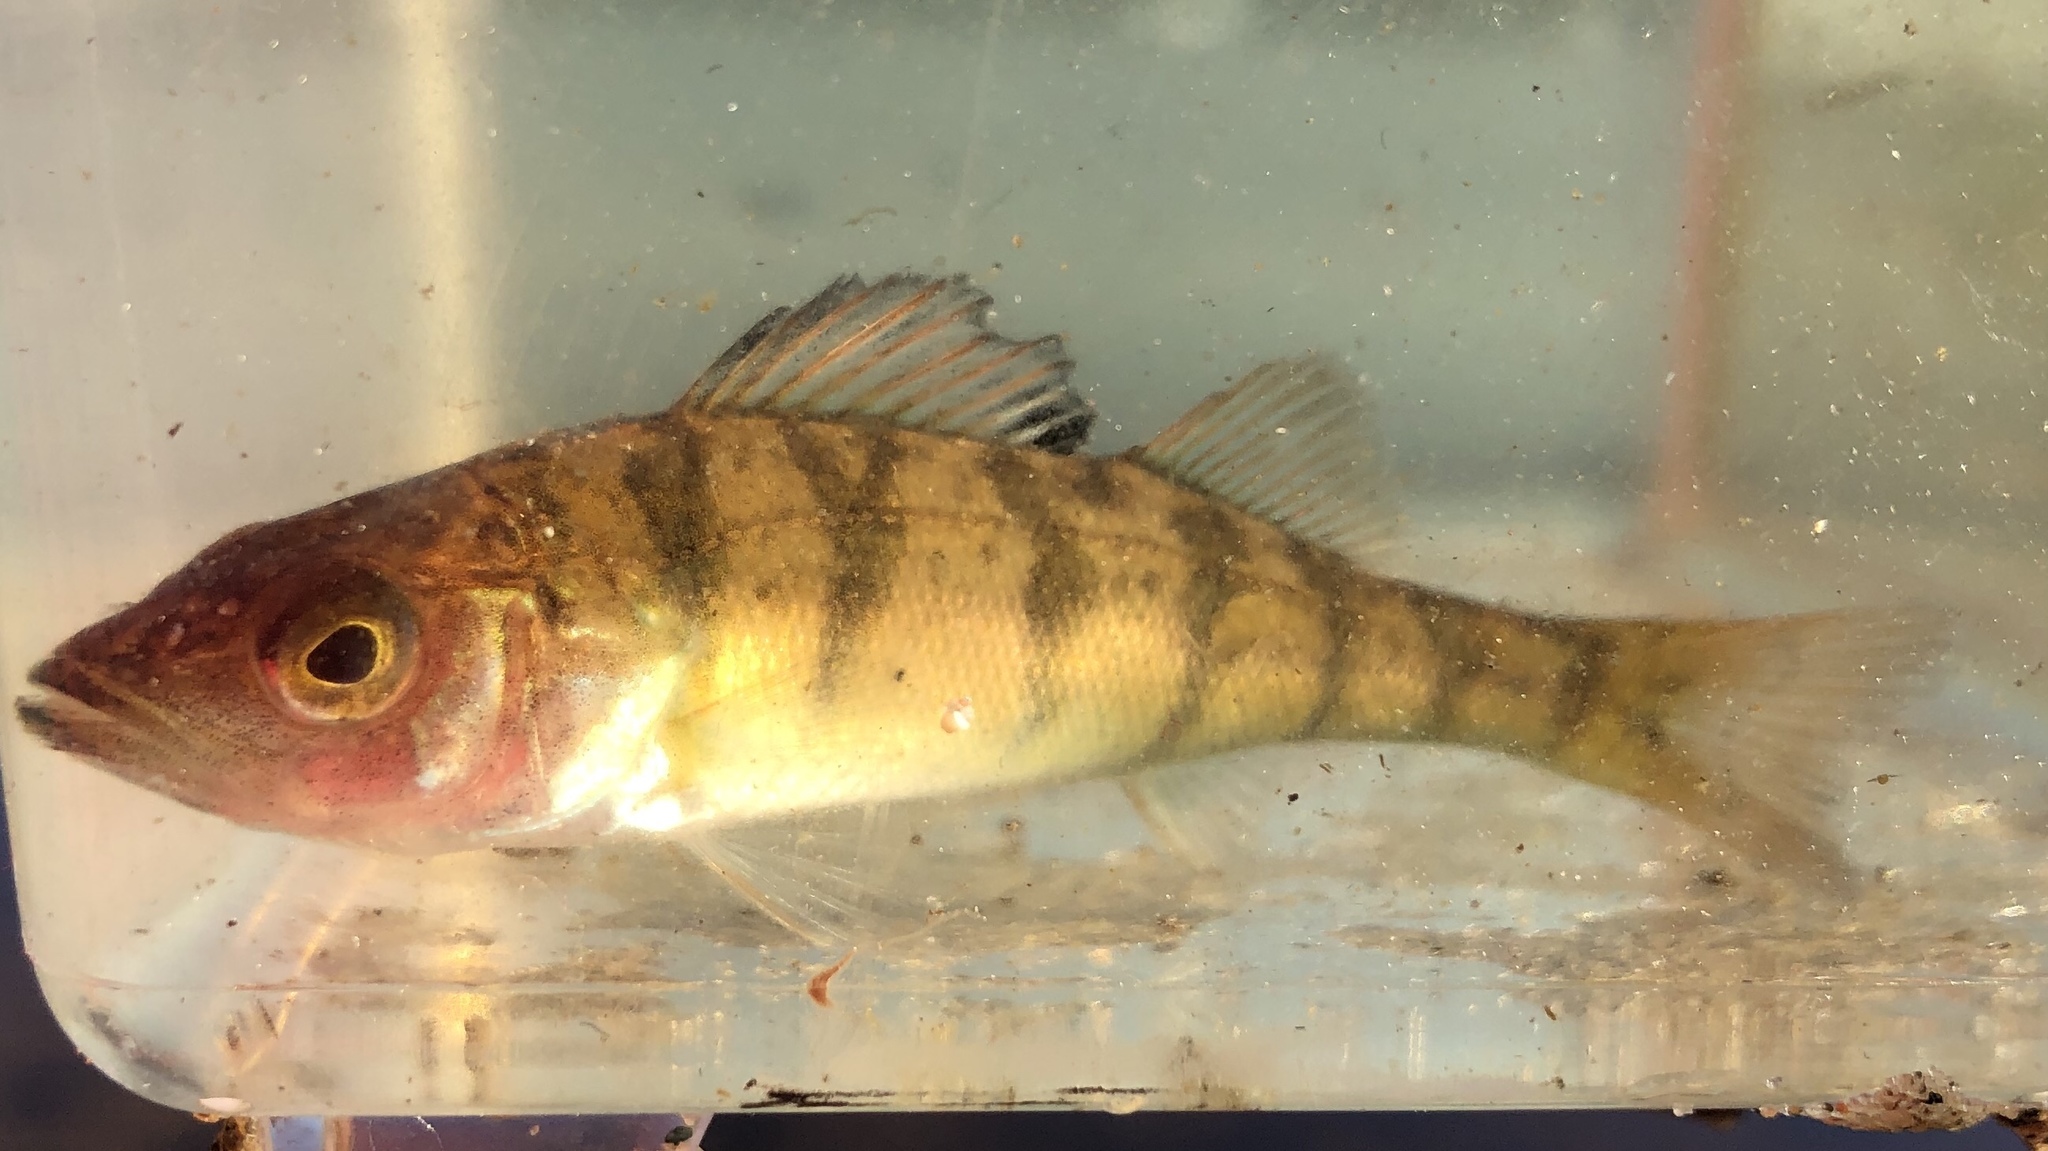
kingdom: Animalia
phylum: Chordata
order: Perciformes
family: Percidae
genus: Perca
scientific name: Perca flavescens
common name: Yellow perch
